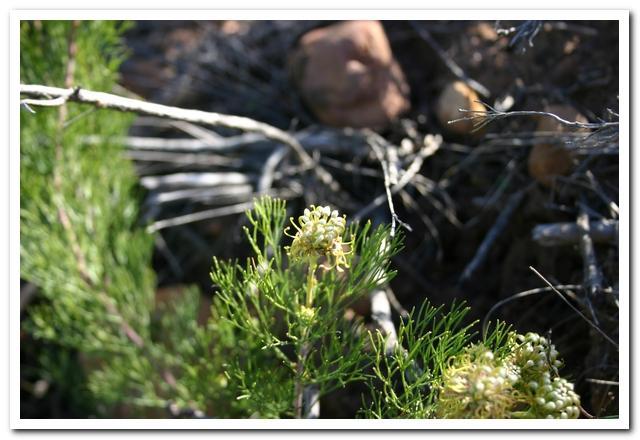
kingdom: Plantae
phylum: Tracheophyta
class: Magnoliopsida
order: Proteales
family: Proteaceae
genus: Serruria
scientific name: Serruria
